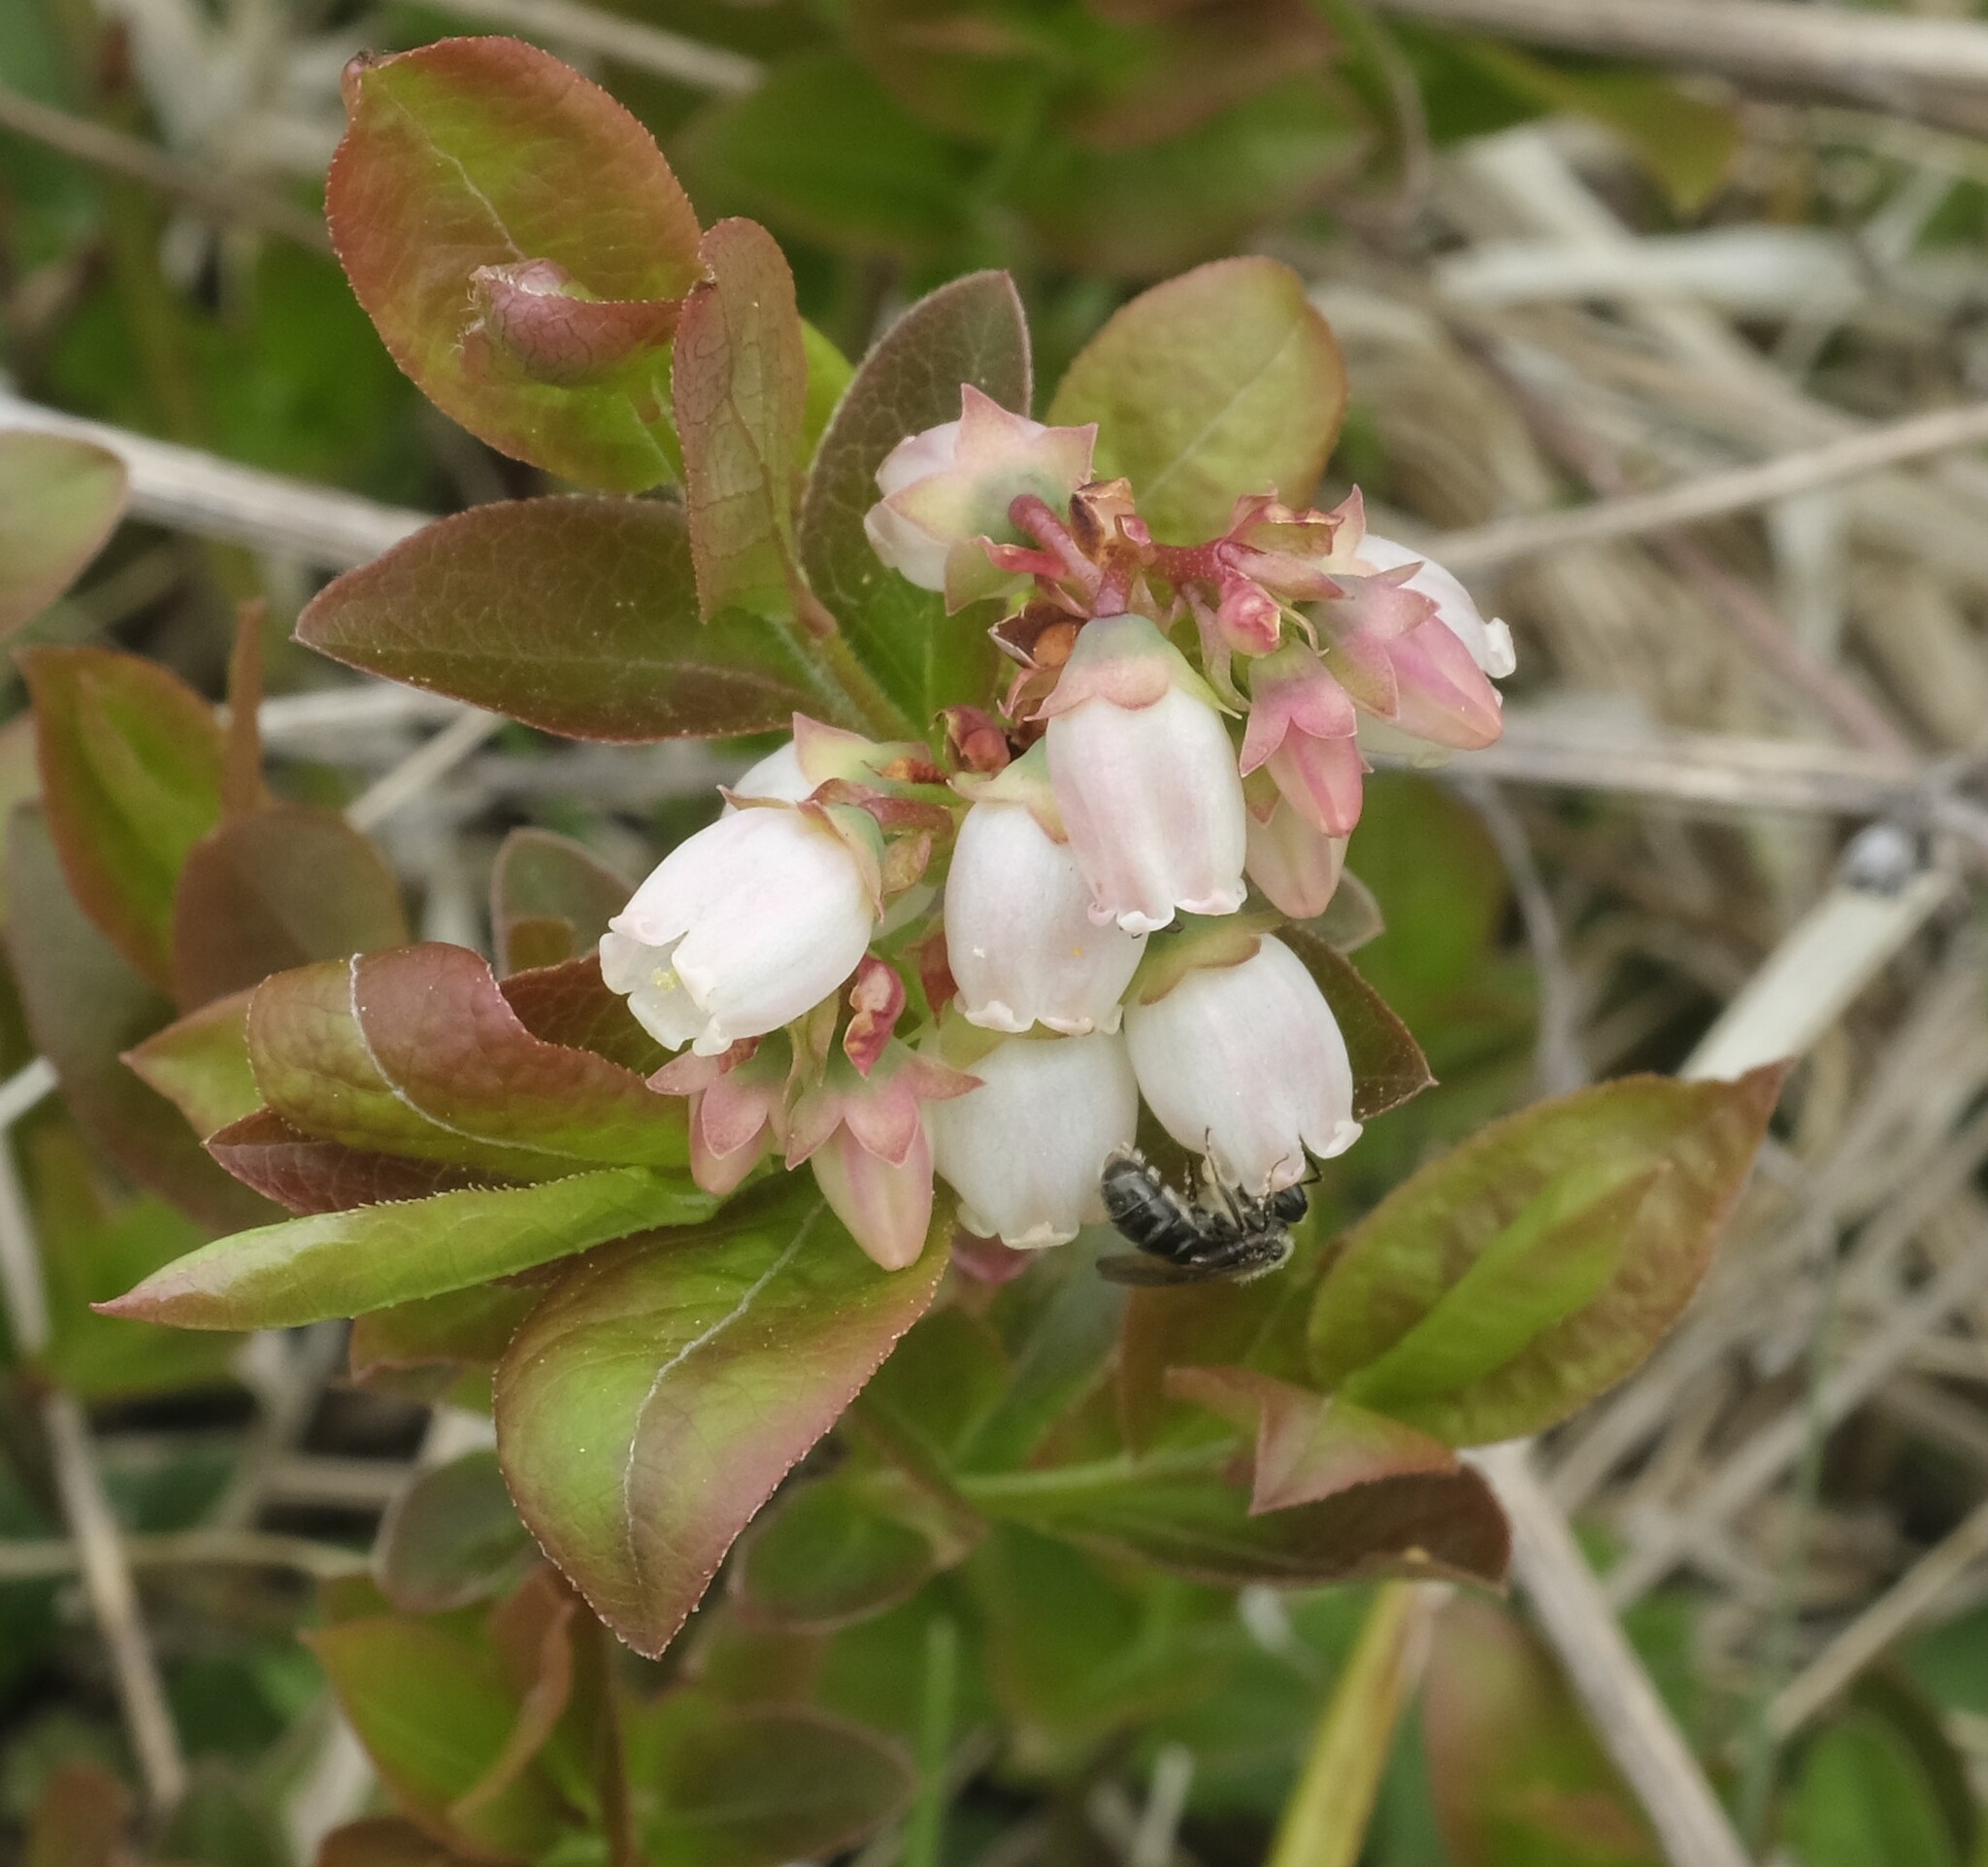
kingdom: Plantae
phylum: Tracheophyta
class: Magnoliopsida
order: Ericales
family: Ericaceae
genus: Vaccinium
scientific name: Vaccinium angustifolium
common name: Early lowbush blueberry
